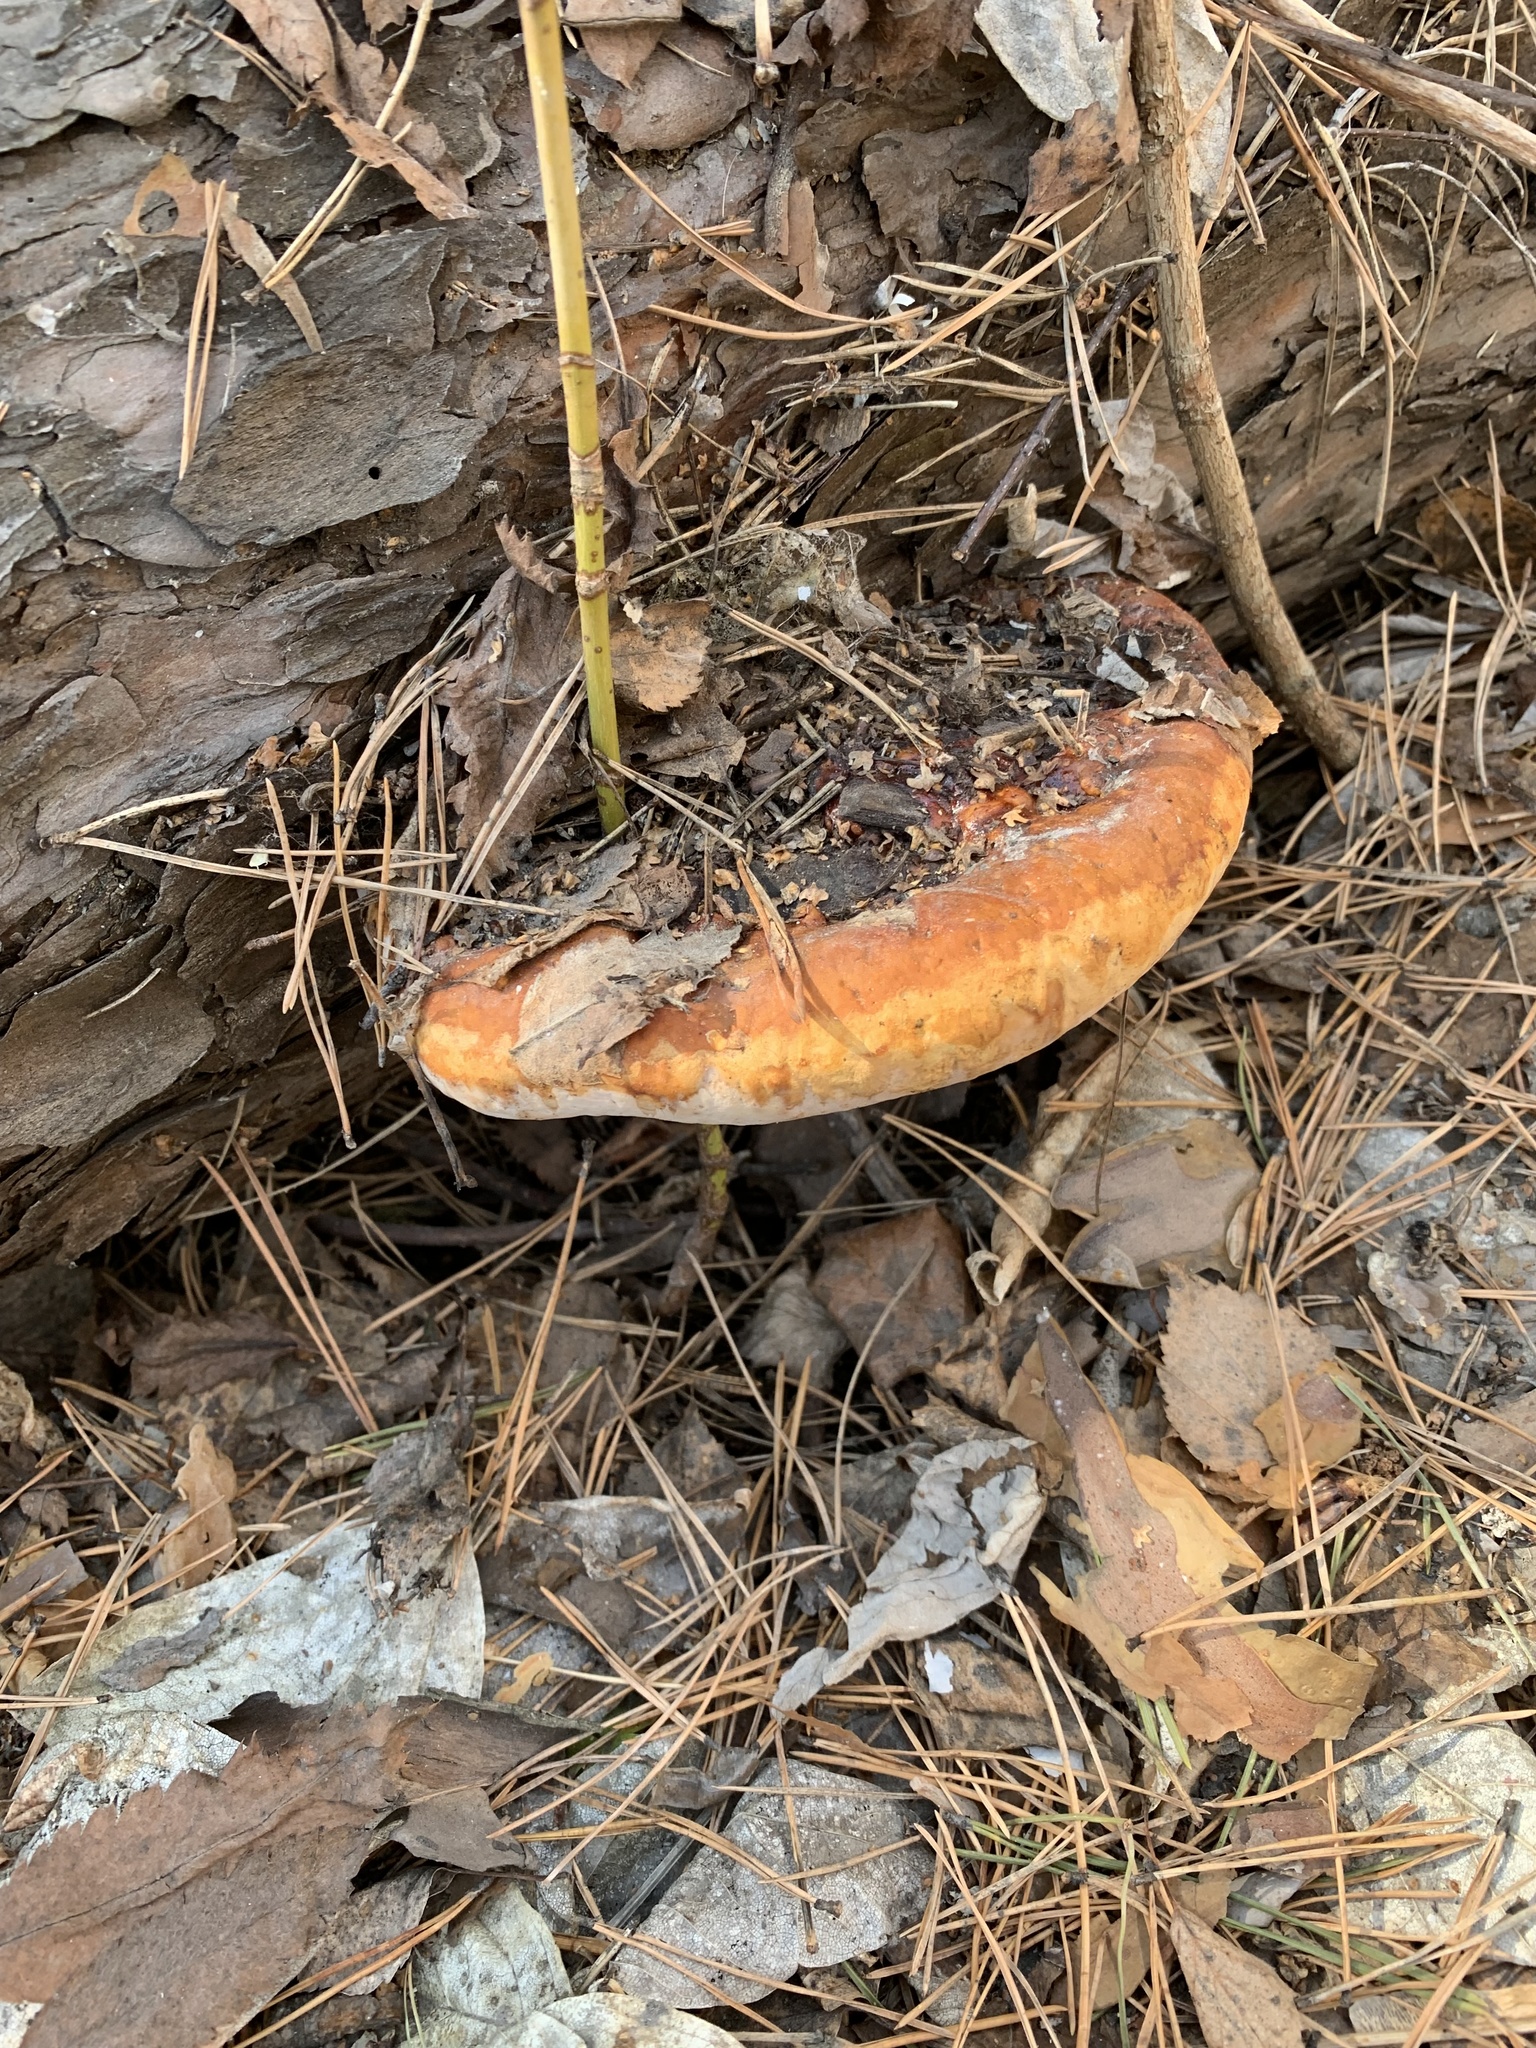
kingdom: Fungi
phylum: Basidiomycota
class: Agaricomycetes
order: Polyporales
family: Fomitopsidaceae
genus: Fomitopsis
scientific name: Fomitopsis pinicola
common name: Red-belted bracket
